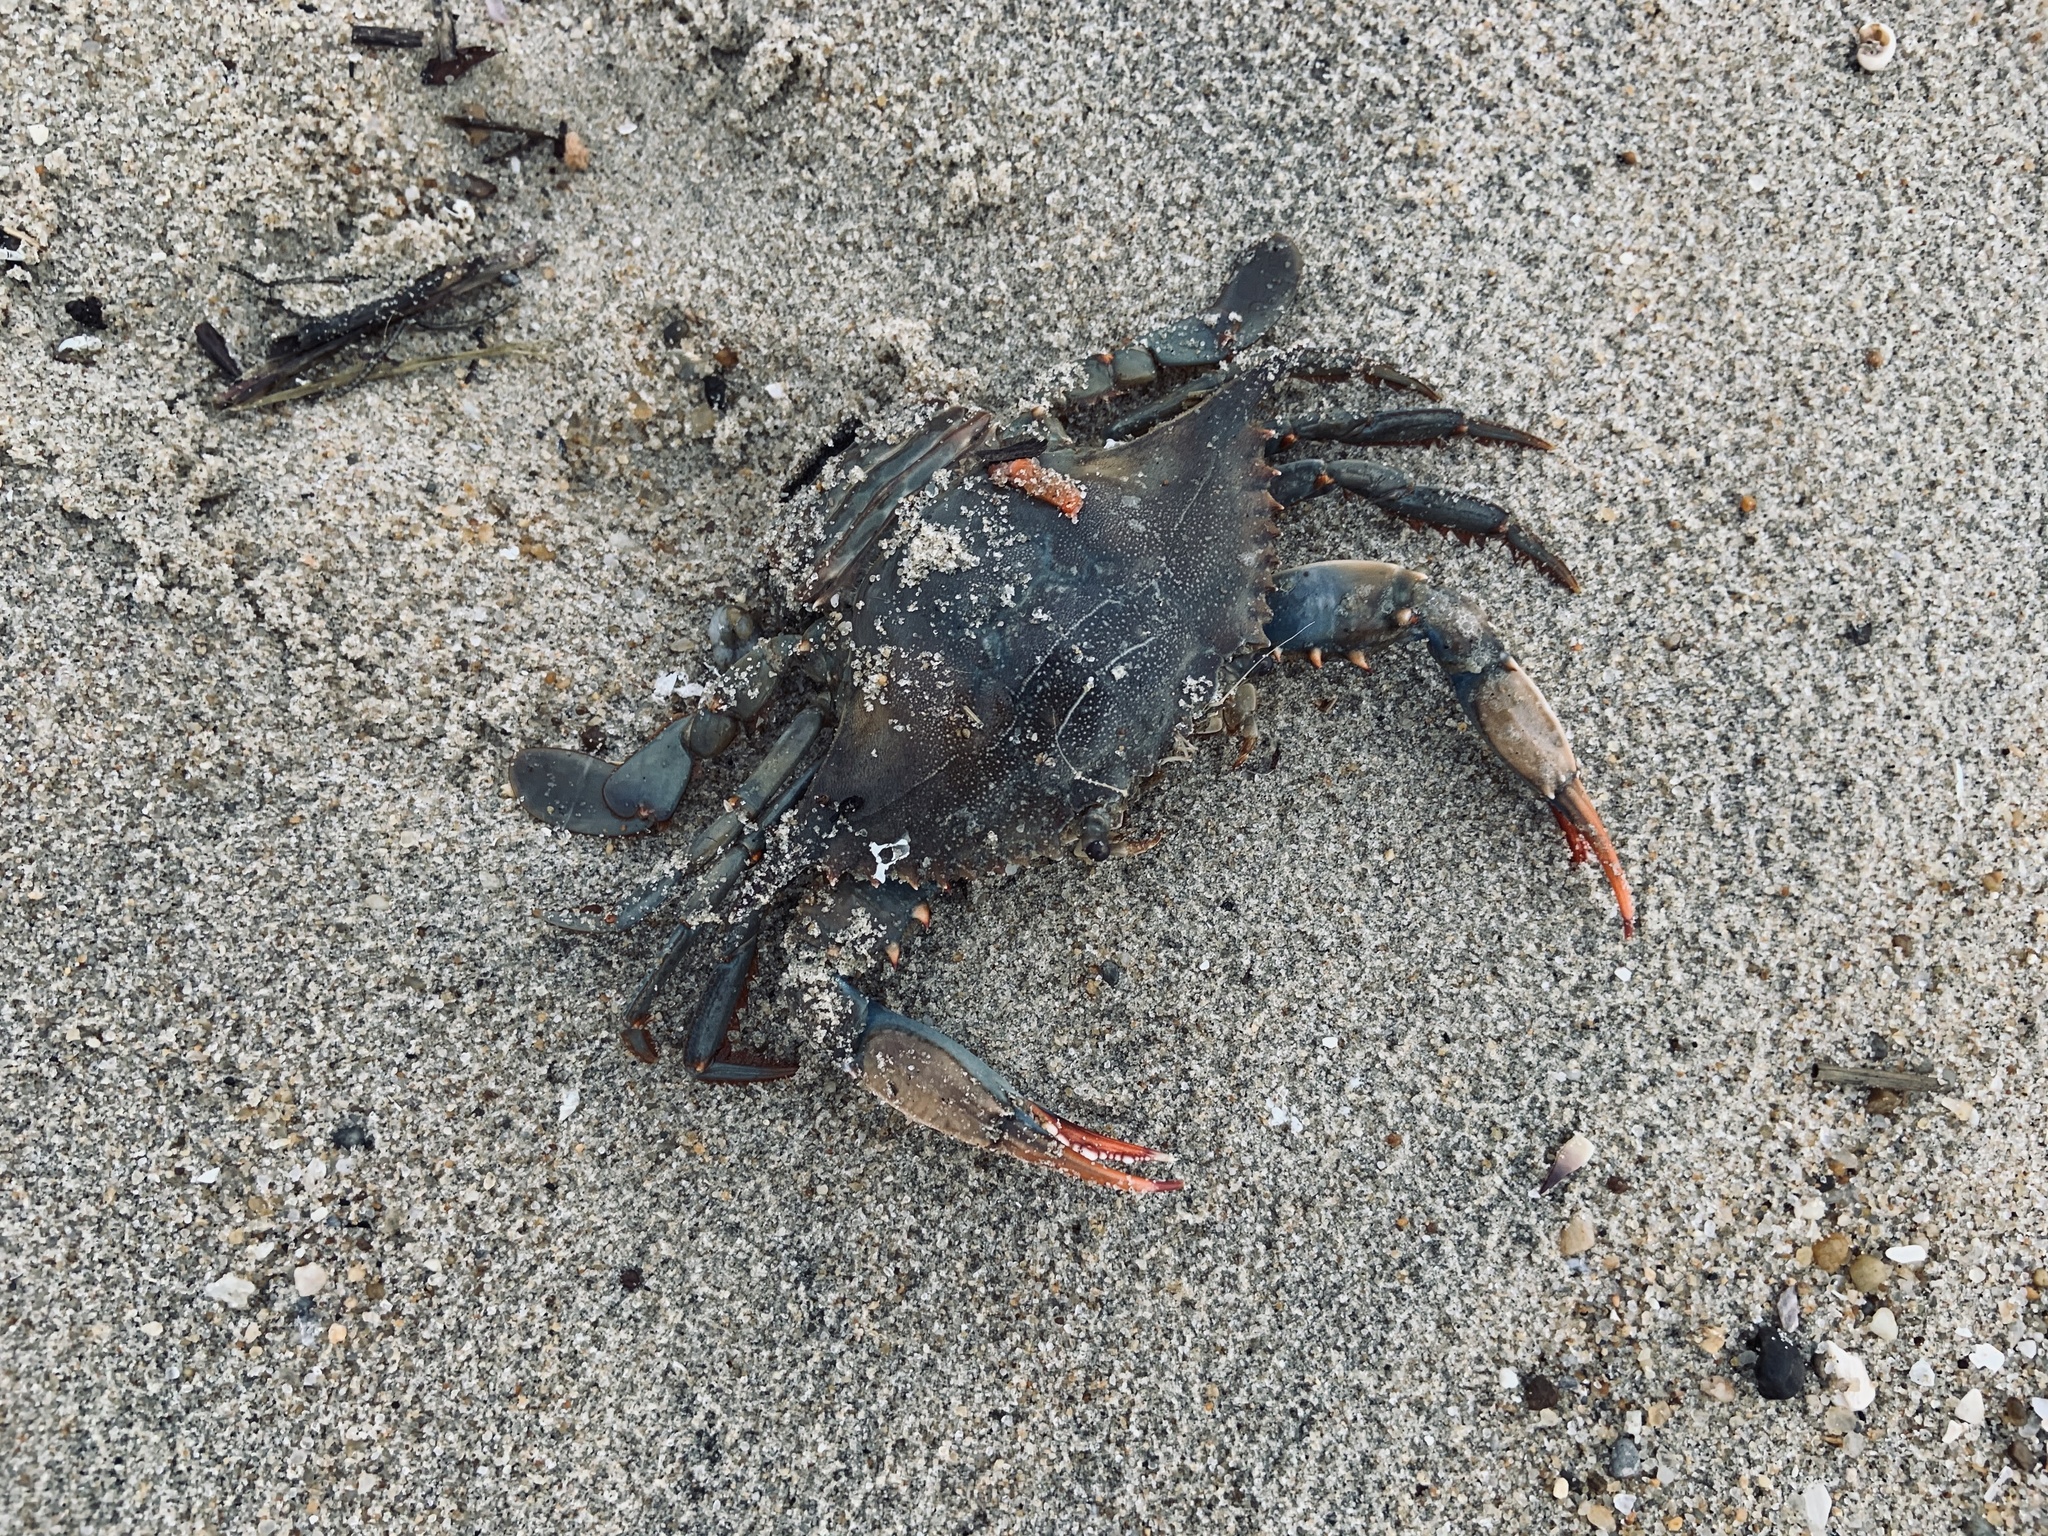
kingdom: Animalia
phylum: Arthropoda
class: Malacostraca
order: Decapoda
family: Portunidae
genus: Callinectes
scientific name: Callinectes sapidus
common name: Blue crab
